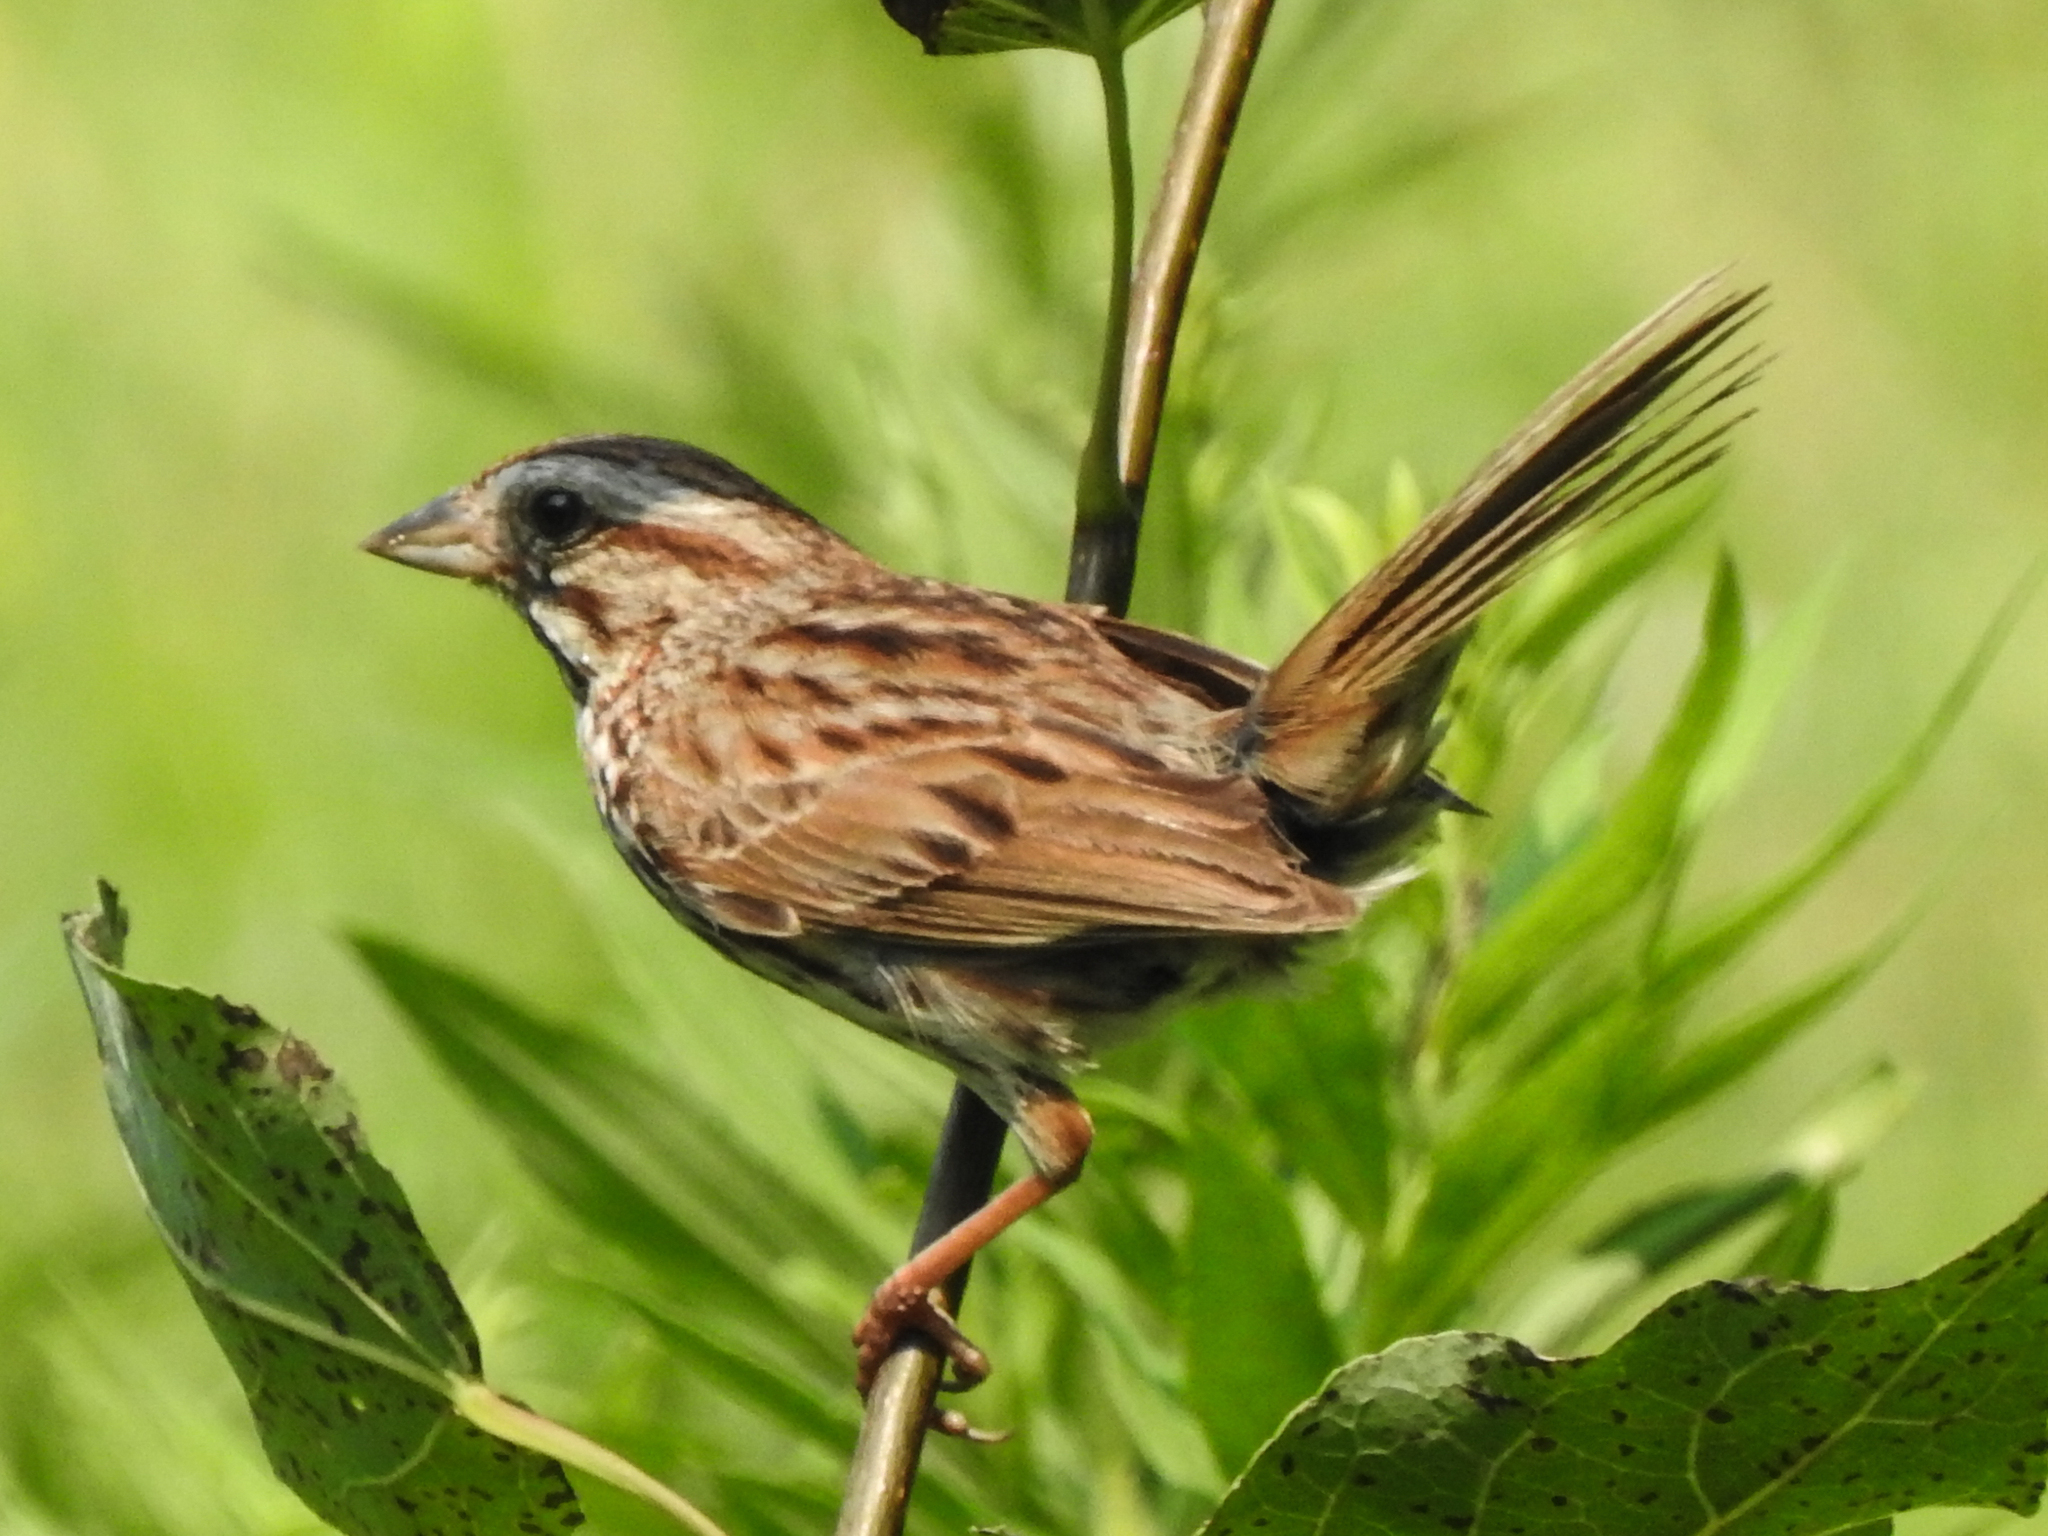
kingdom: Animalia
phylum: Chordata
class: Aves
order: Passeriformes
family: Passerellidae
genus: Melospiza
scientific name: Melospiza melodia
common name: Song sparrow
